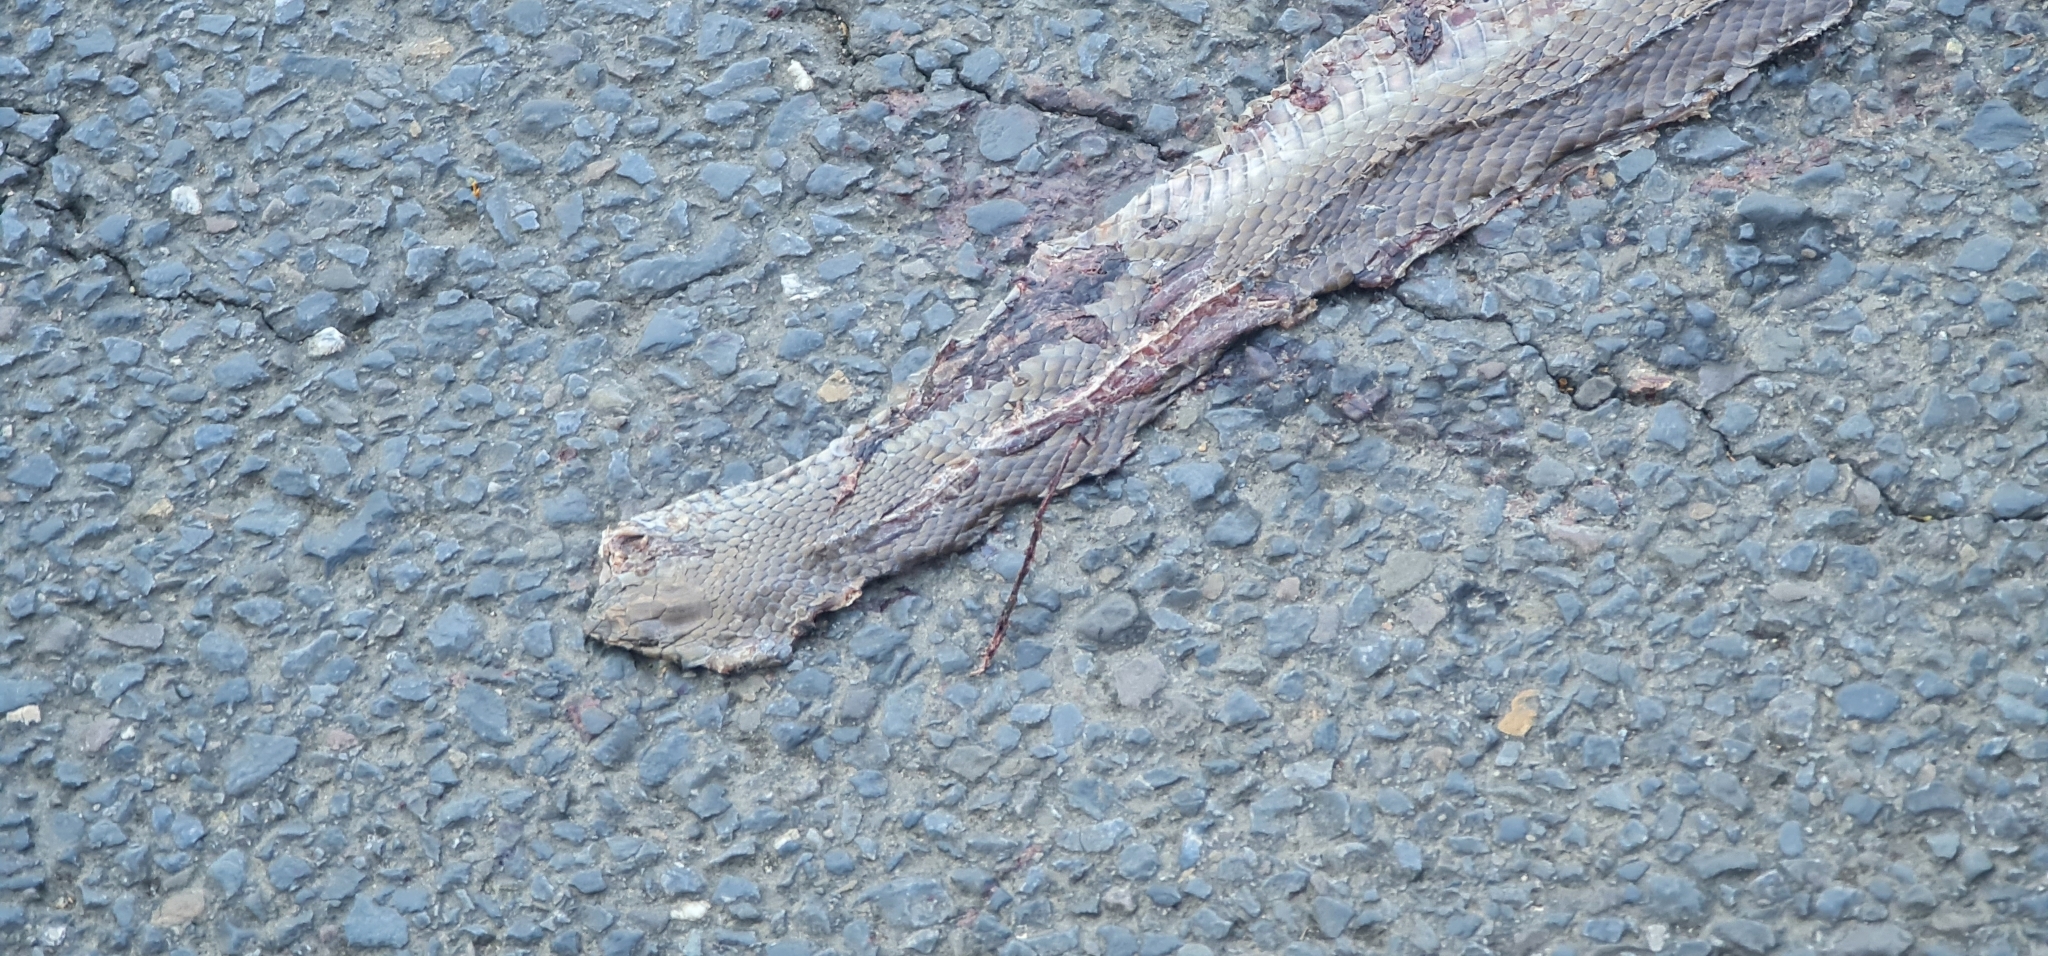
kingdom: Animalia
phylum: Chordata
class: Squamata
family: Elapidae
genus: Pseudonaja
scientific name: Pseudonaja textilis
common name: Eastern brown snake
